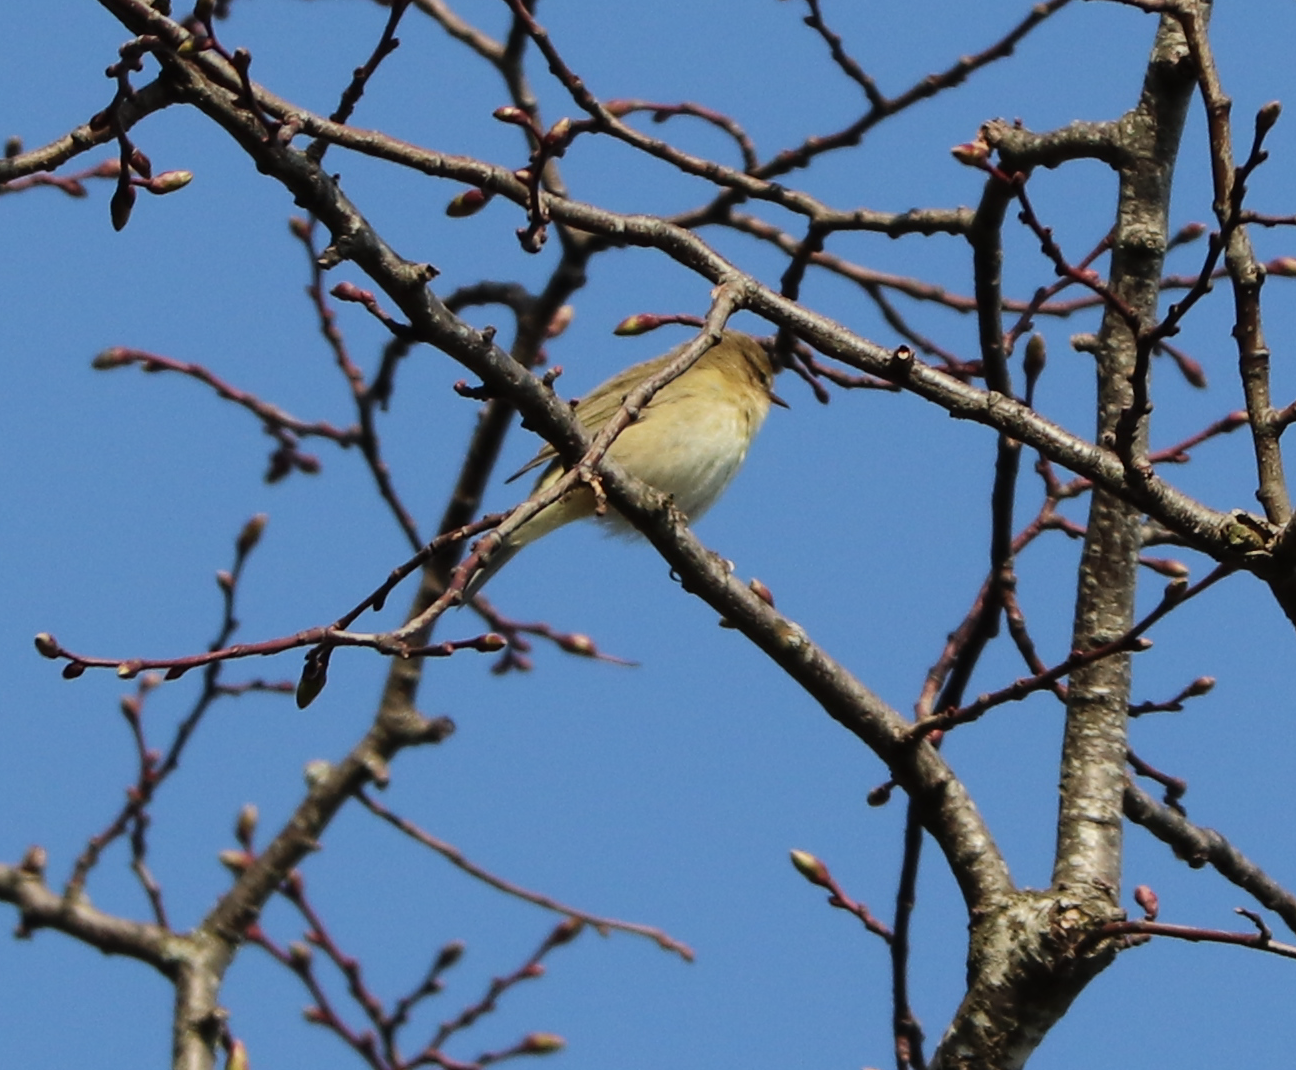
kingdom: Animalia
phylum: Chordata
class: Aves
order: Passeriformes
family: Phylloscopidae
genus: Phylloscopus
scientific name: Phylloscopus collybita
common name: Common chiffchaff
